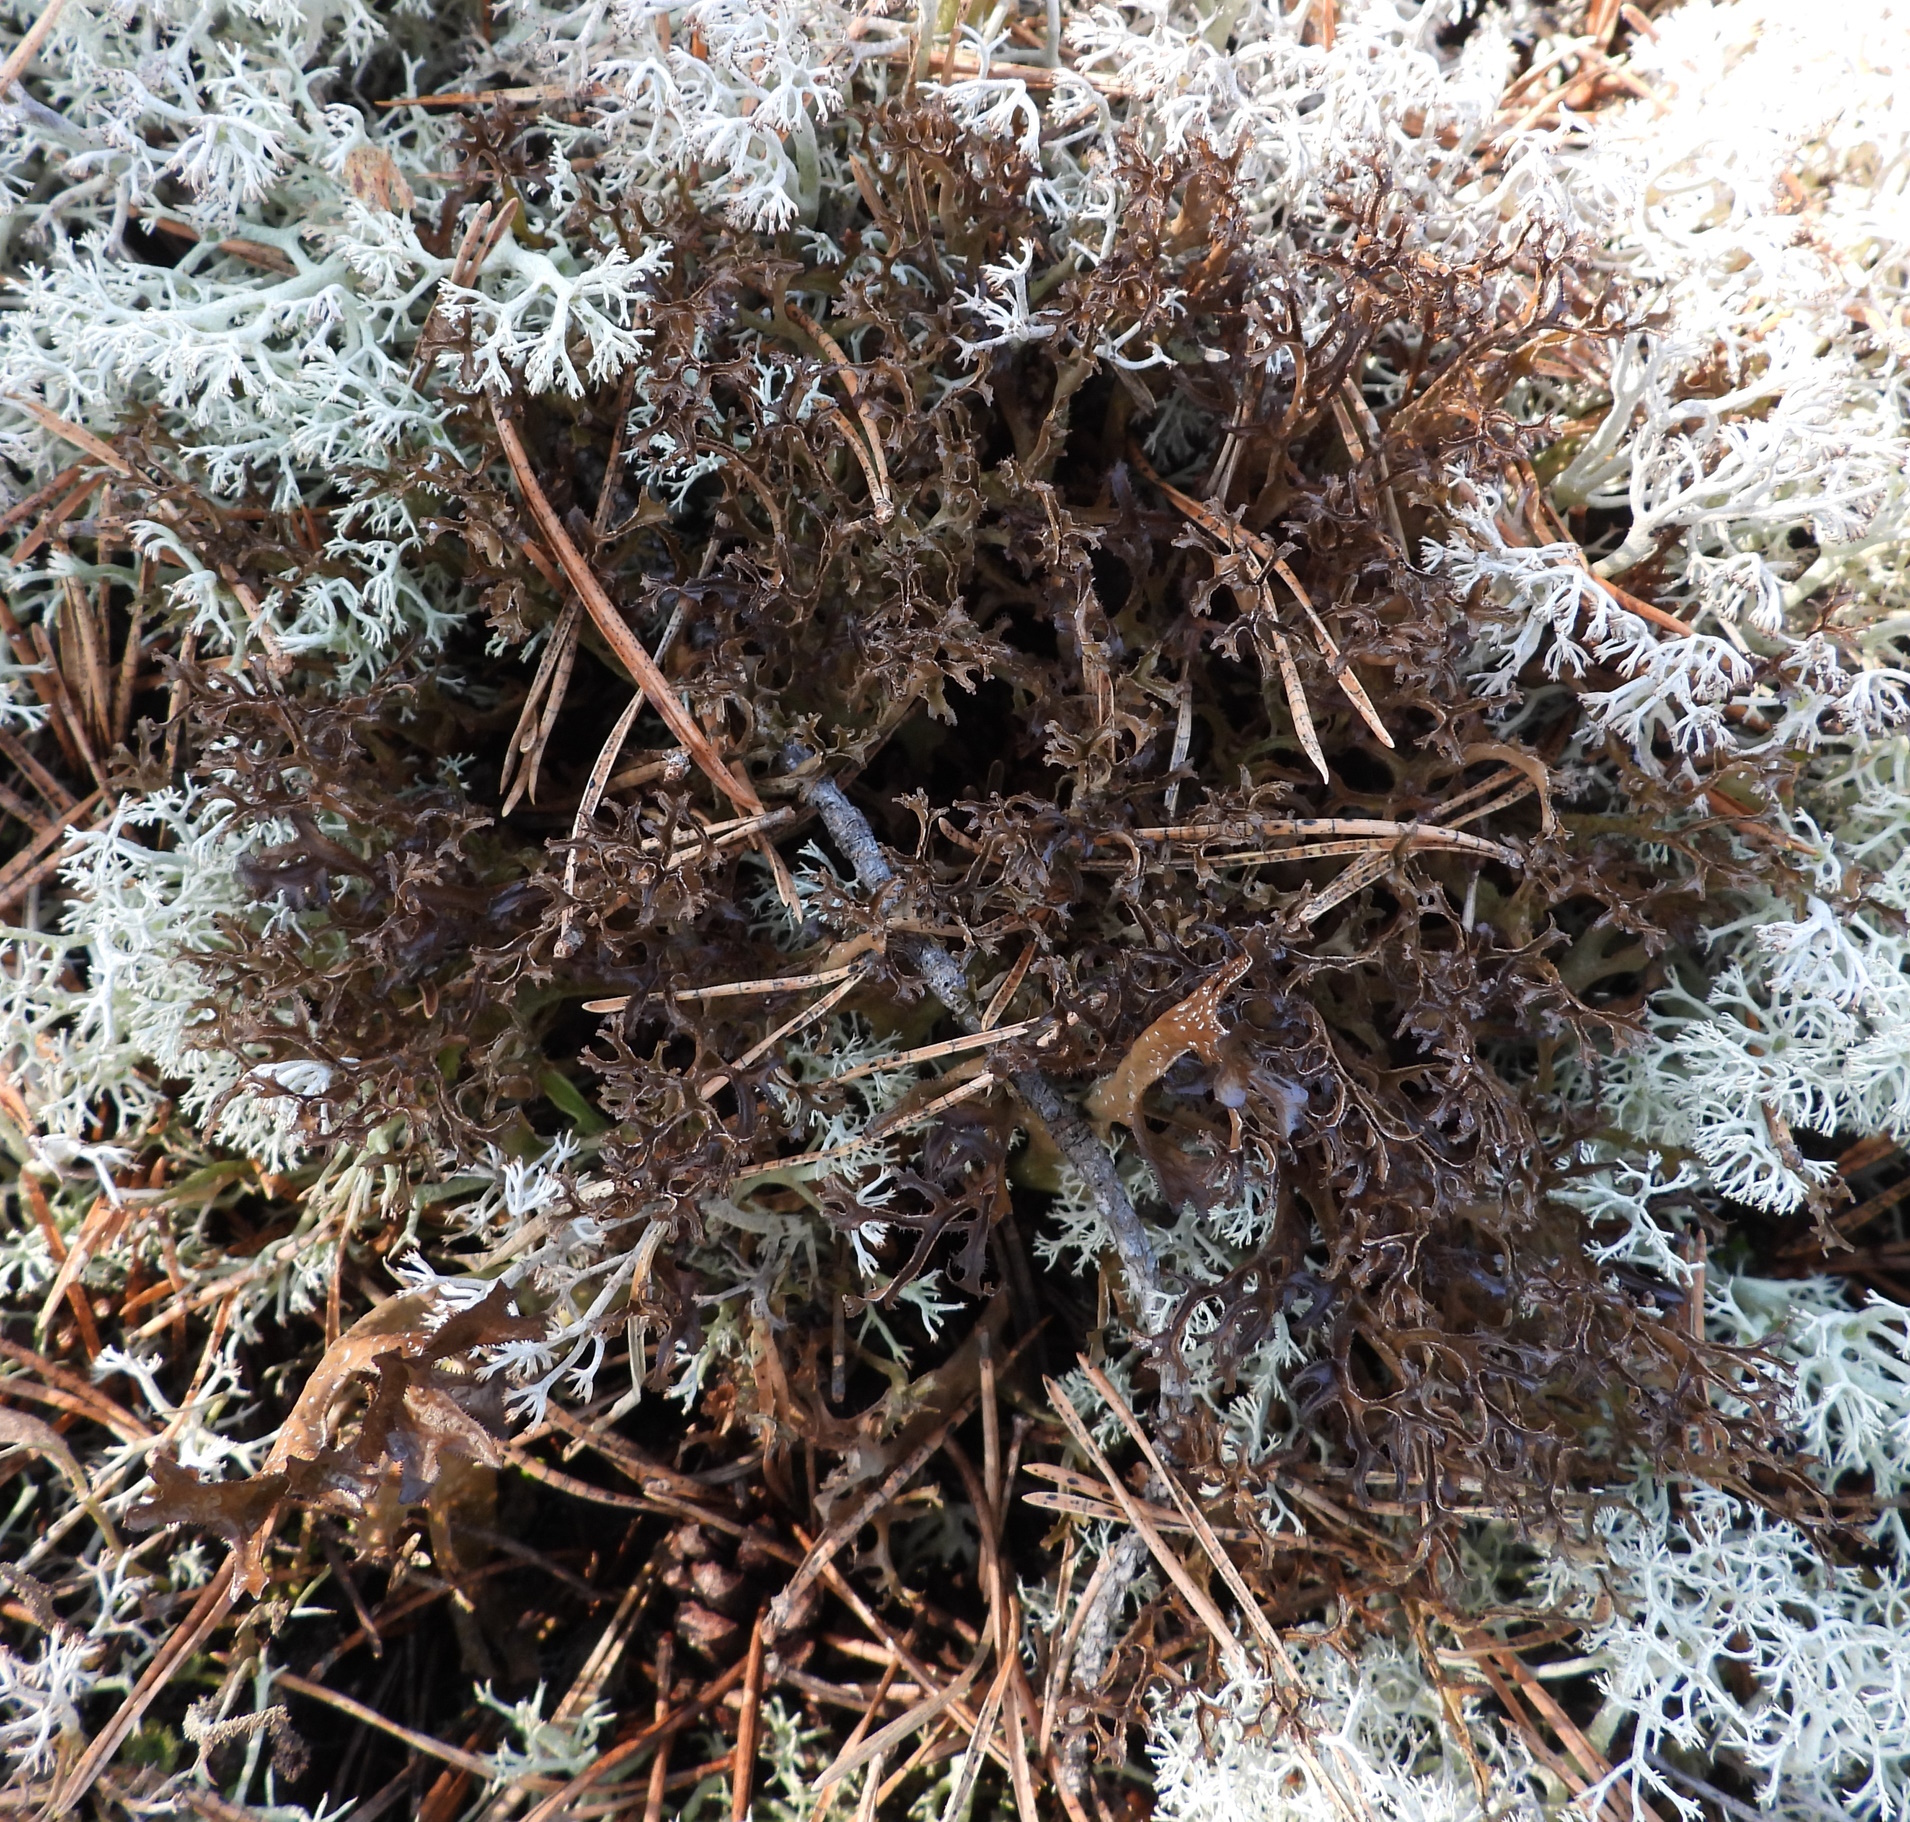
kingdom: Fungi
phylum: Ascomycota
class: Lecanoromycetes
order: Lecanorales
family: Parmeliaceae
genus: Cetraria
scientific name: Cetraria ericetorum
